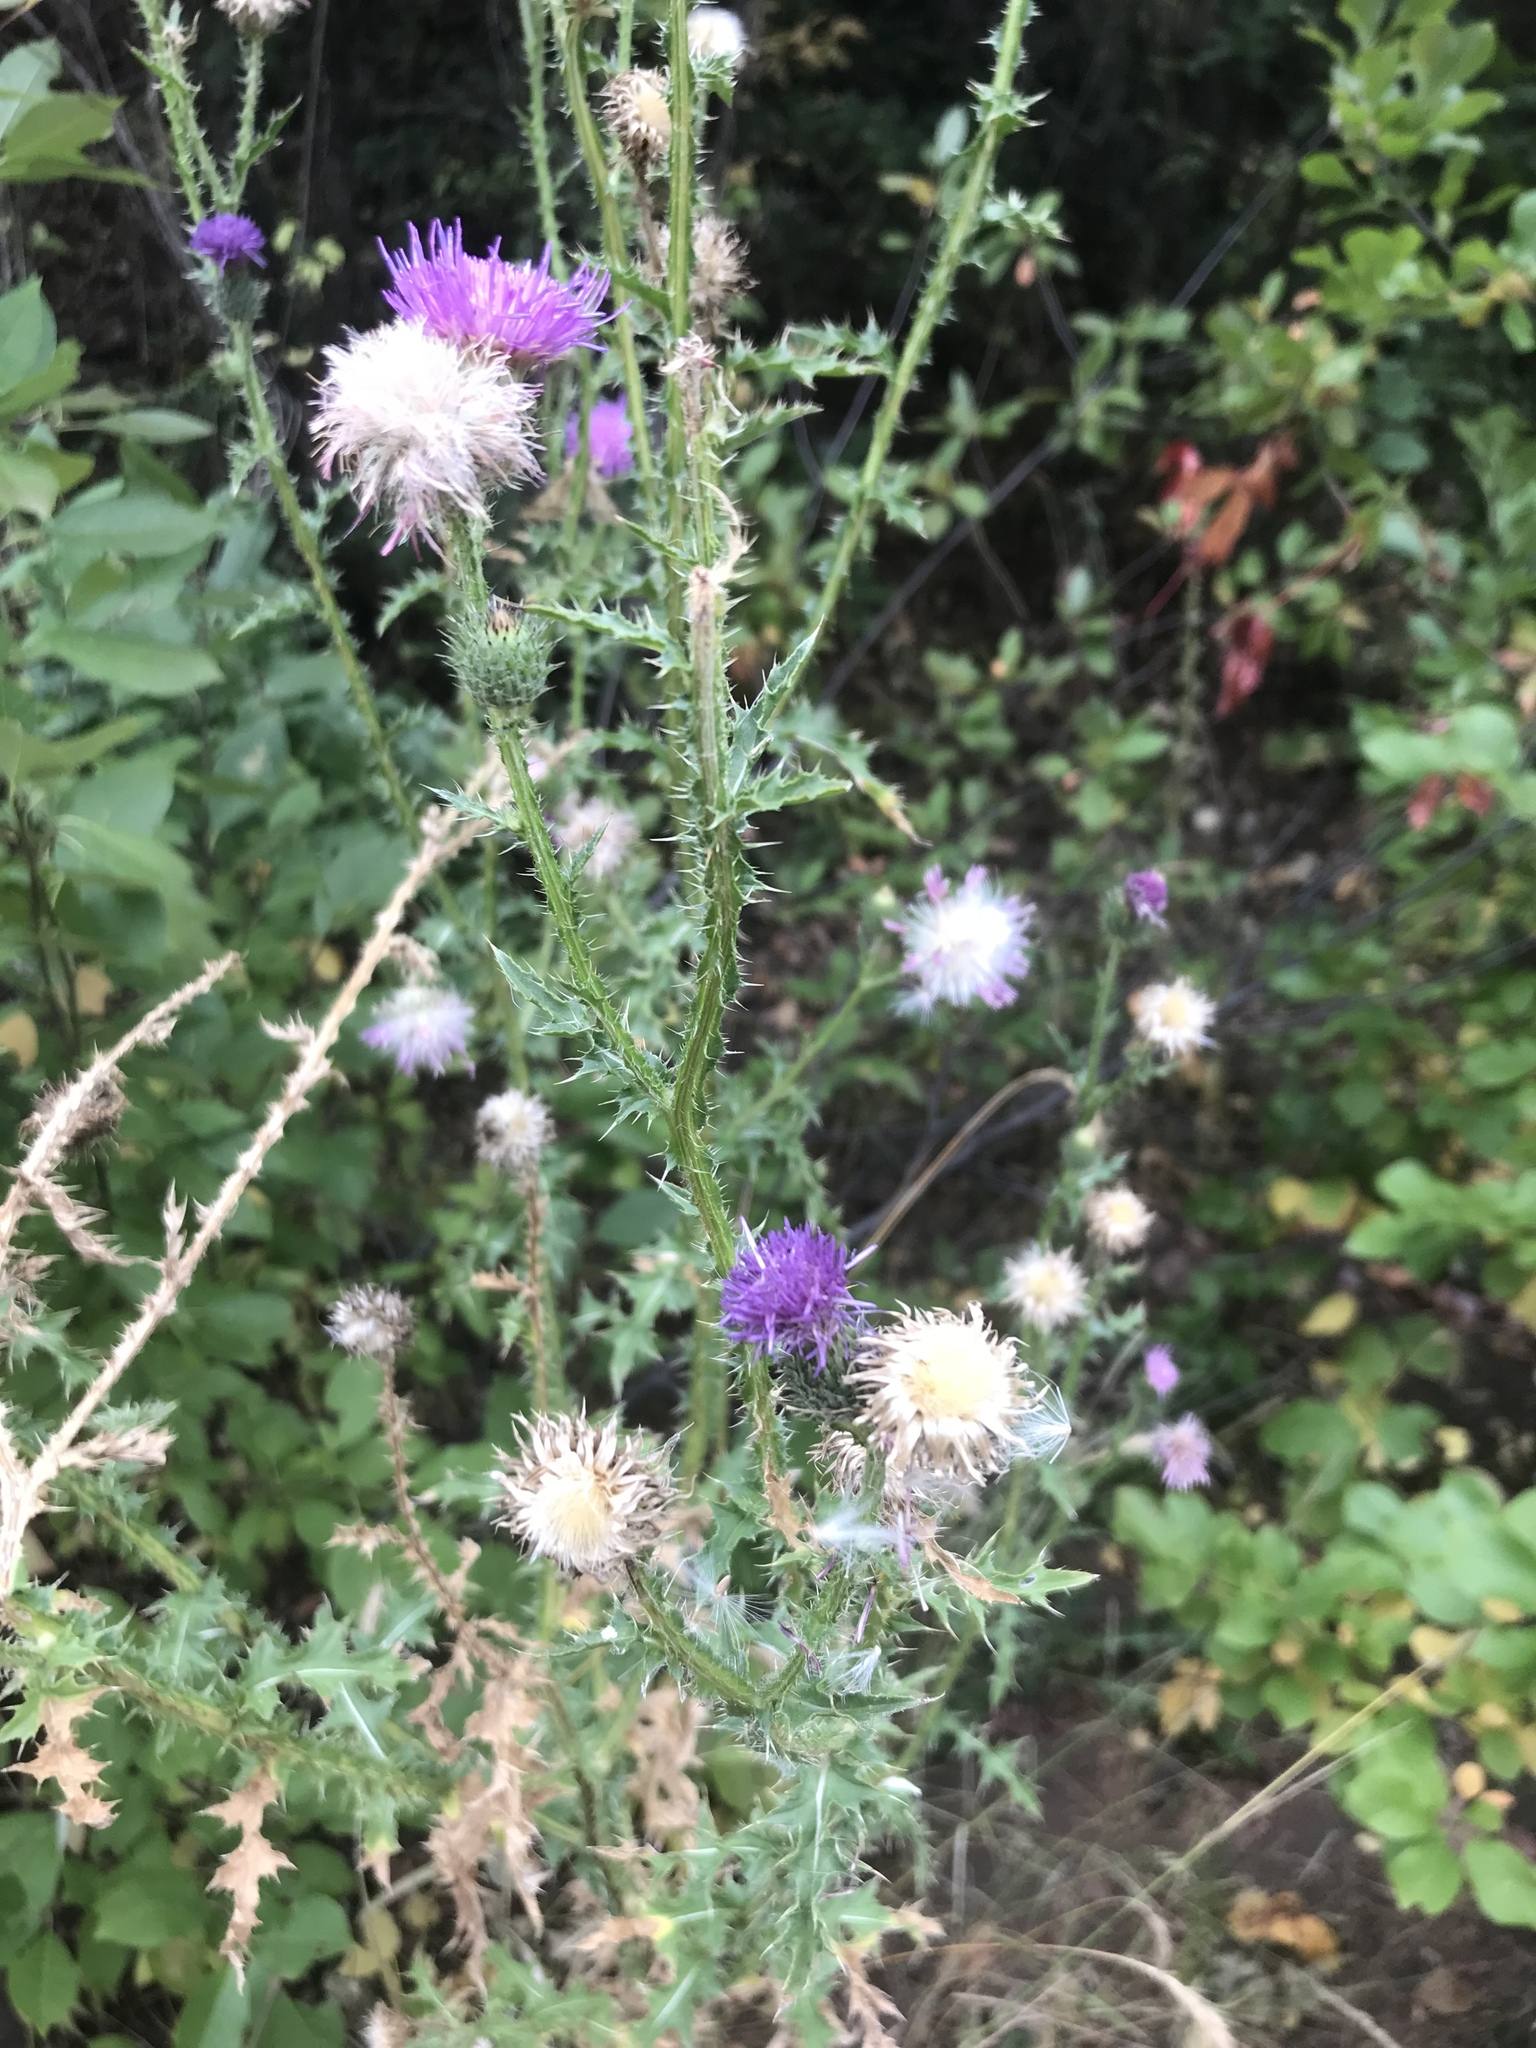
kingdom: Plantae
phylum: Tracheophyta
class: Magnoliopsida
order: Asterales
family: Asteraceae
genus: Carduus
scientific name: Carduus acanthoides
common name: Plumeless thistle
